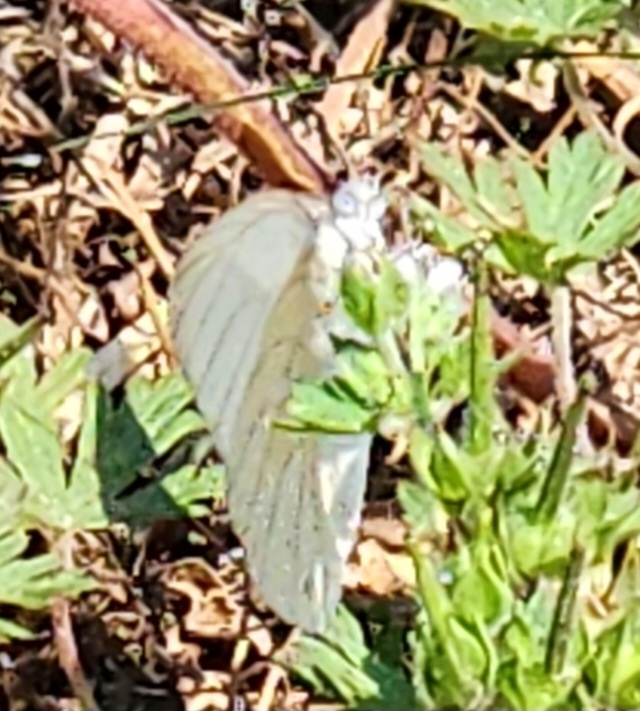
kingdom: Animalia
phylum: Arthropoda
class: Insecta
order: Lepidoptera
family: Pieridae
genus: Ascia
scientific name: Ascia monuste
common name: Great southern white
